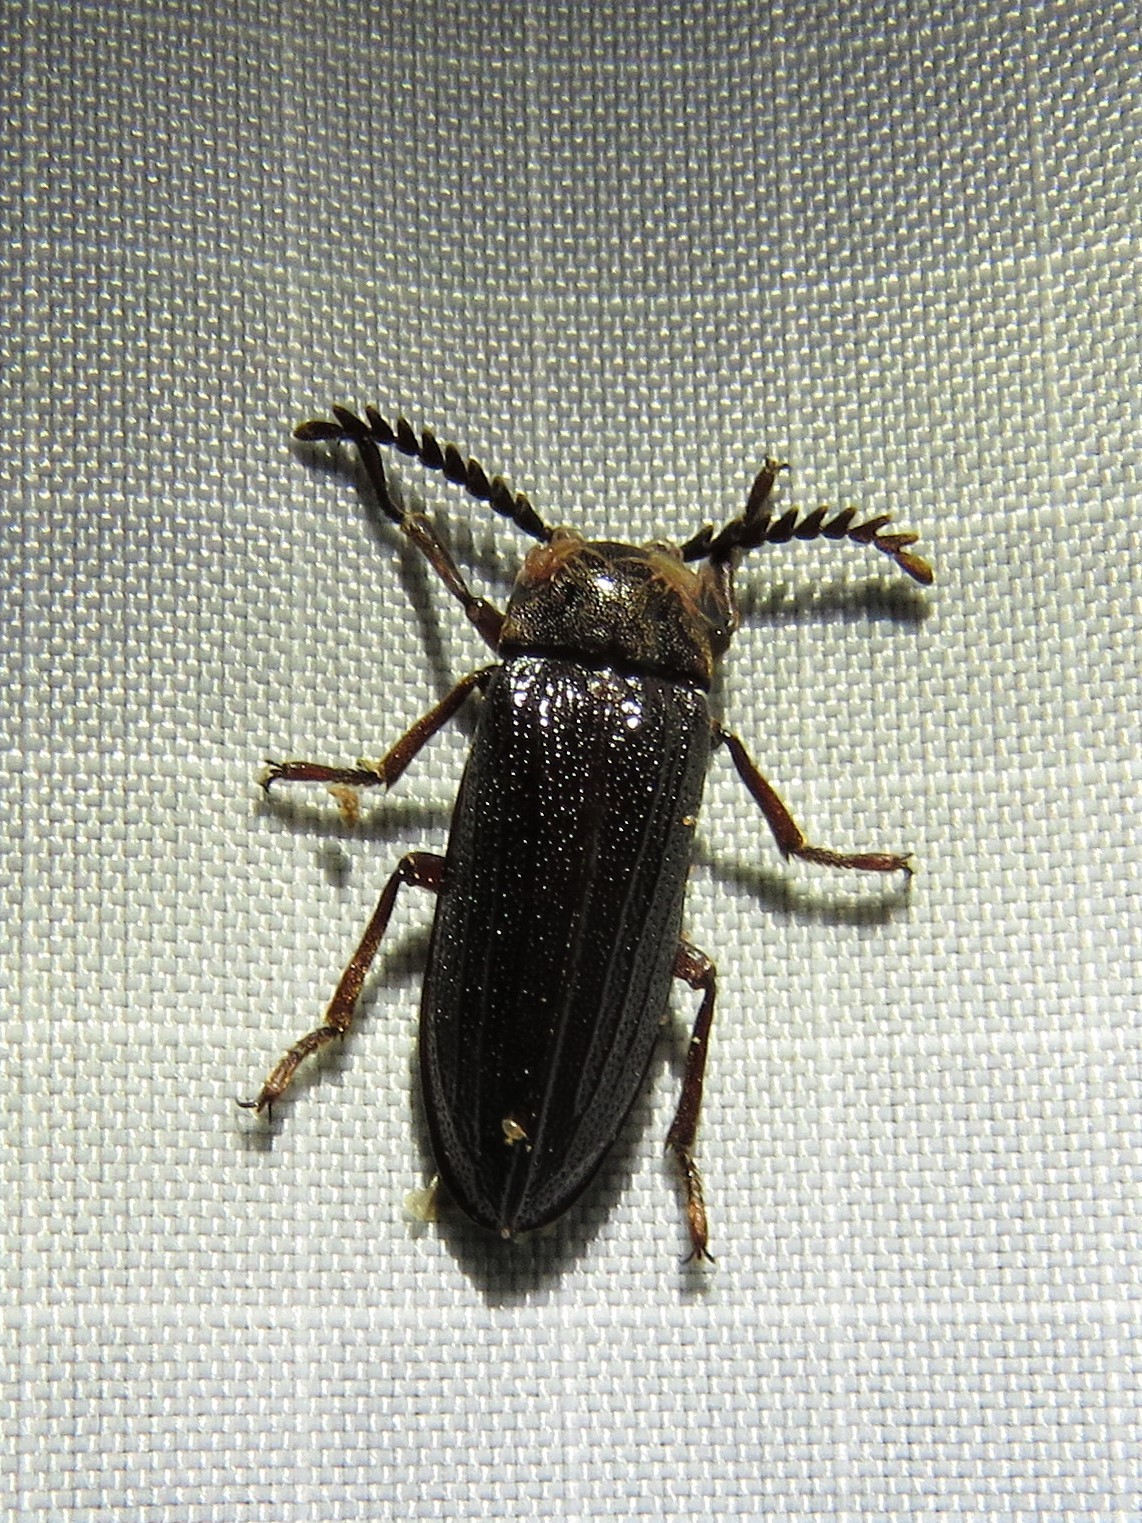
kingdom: Animalia
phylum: Arthropoda
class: Insecta
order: Coleoptera
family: Callirhipidae
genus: Zenoa
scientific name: Zenoa picea
